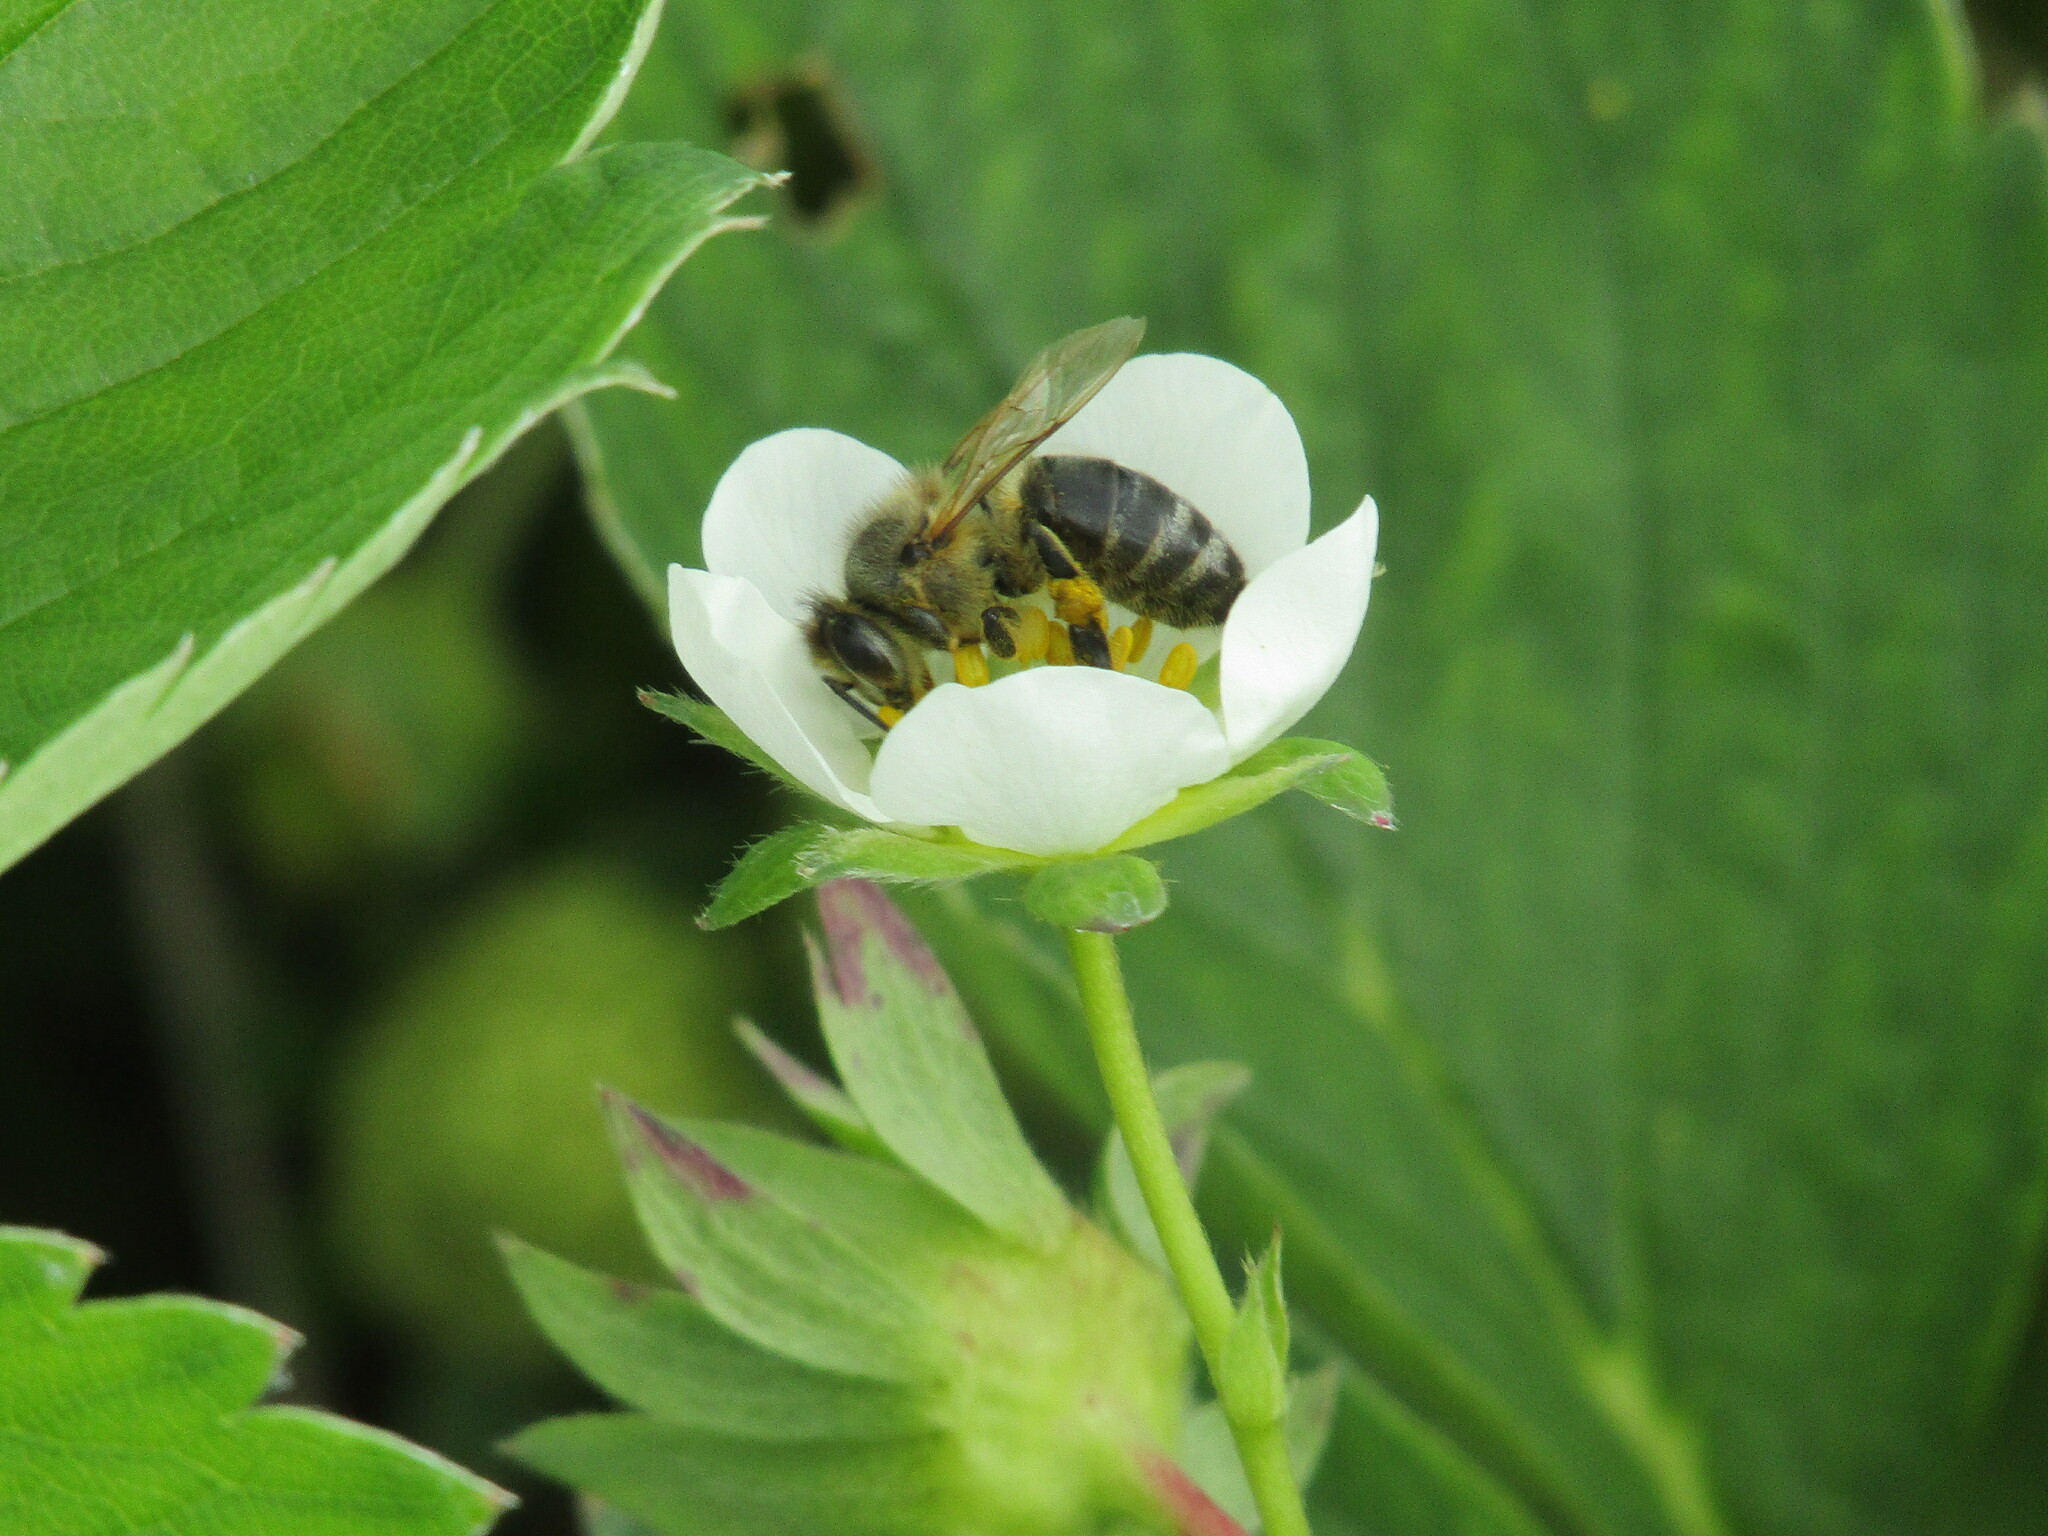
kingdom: Animalia
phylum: Arthropoda
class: Insecta
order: Hymenoptera
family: Apidae
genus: Apis
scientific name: Apis mellifera
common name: Honey bee
